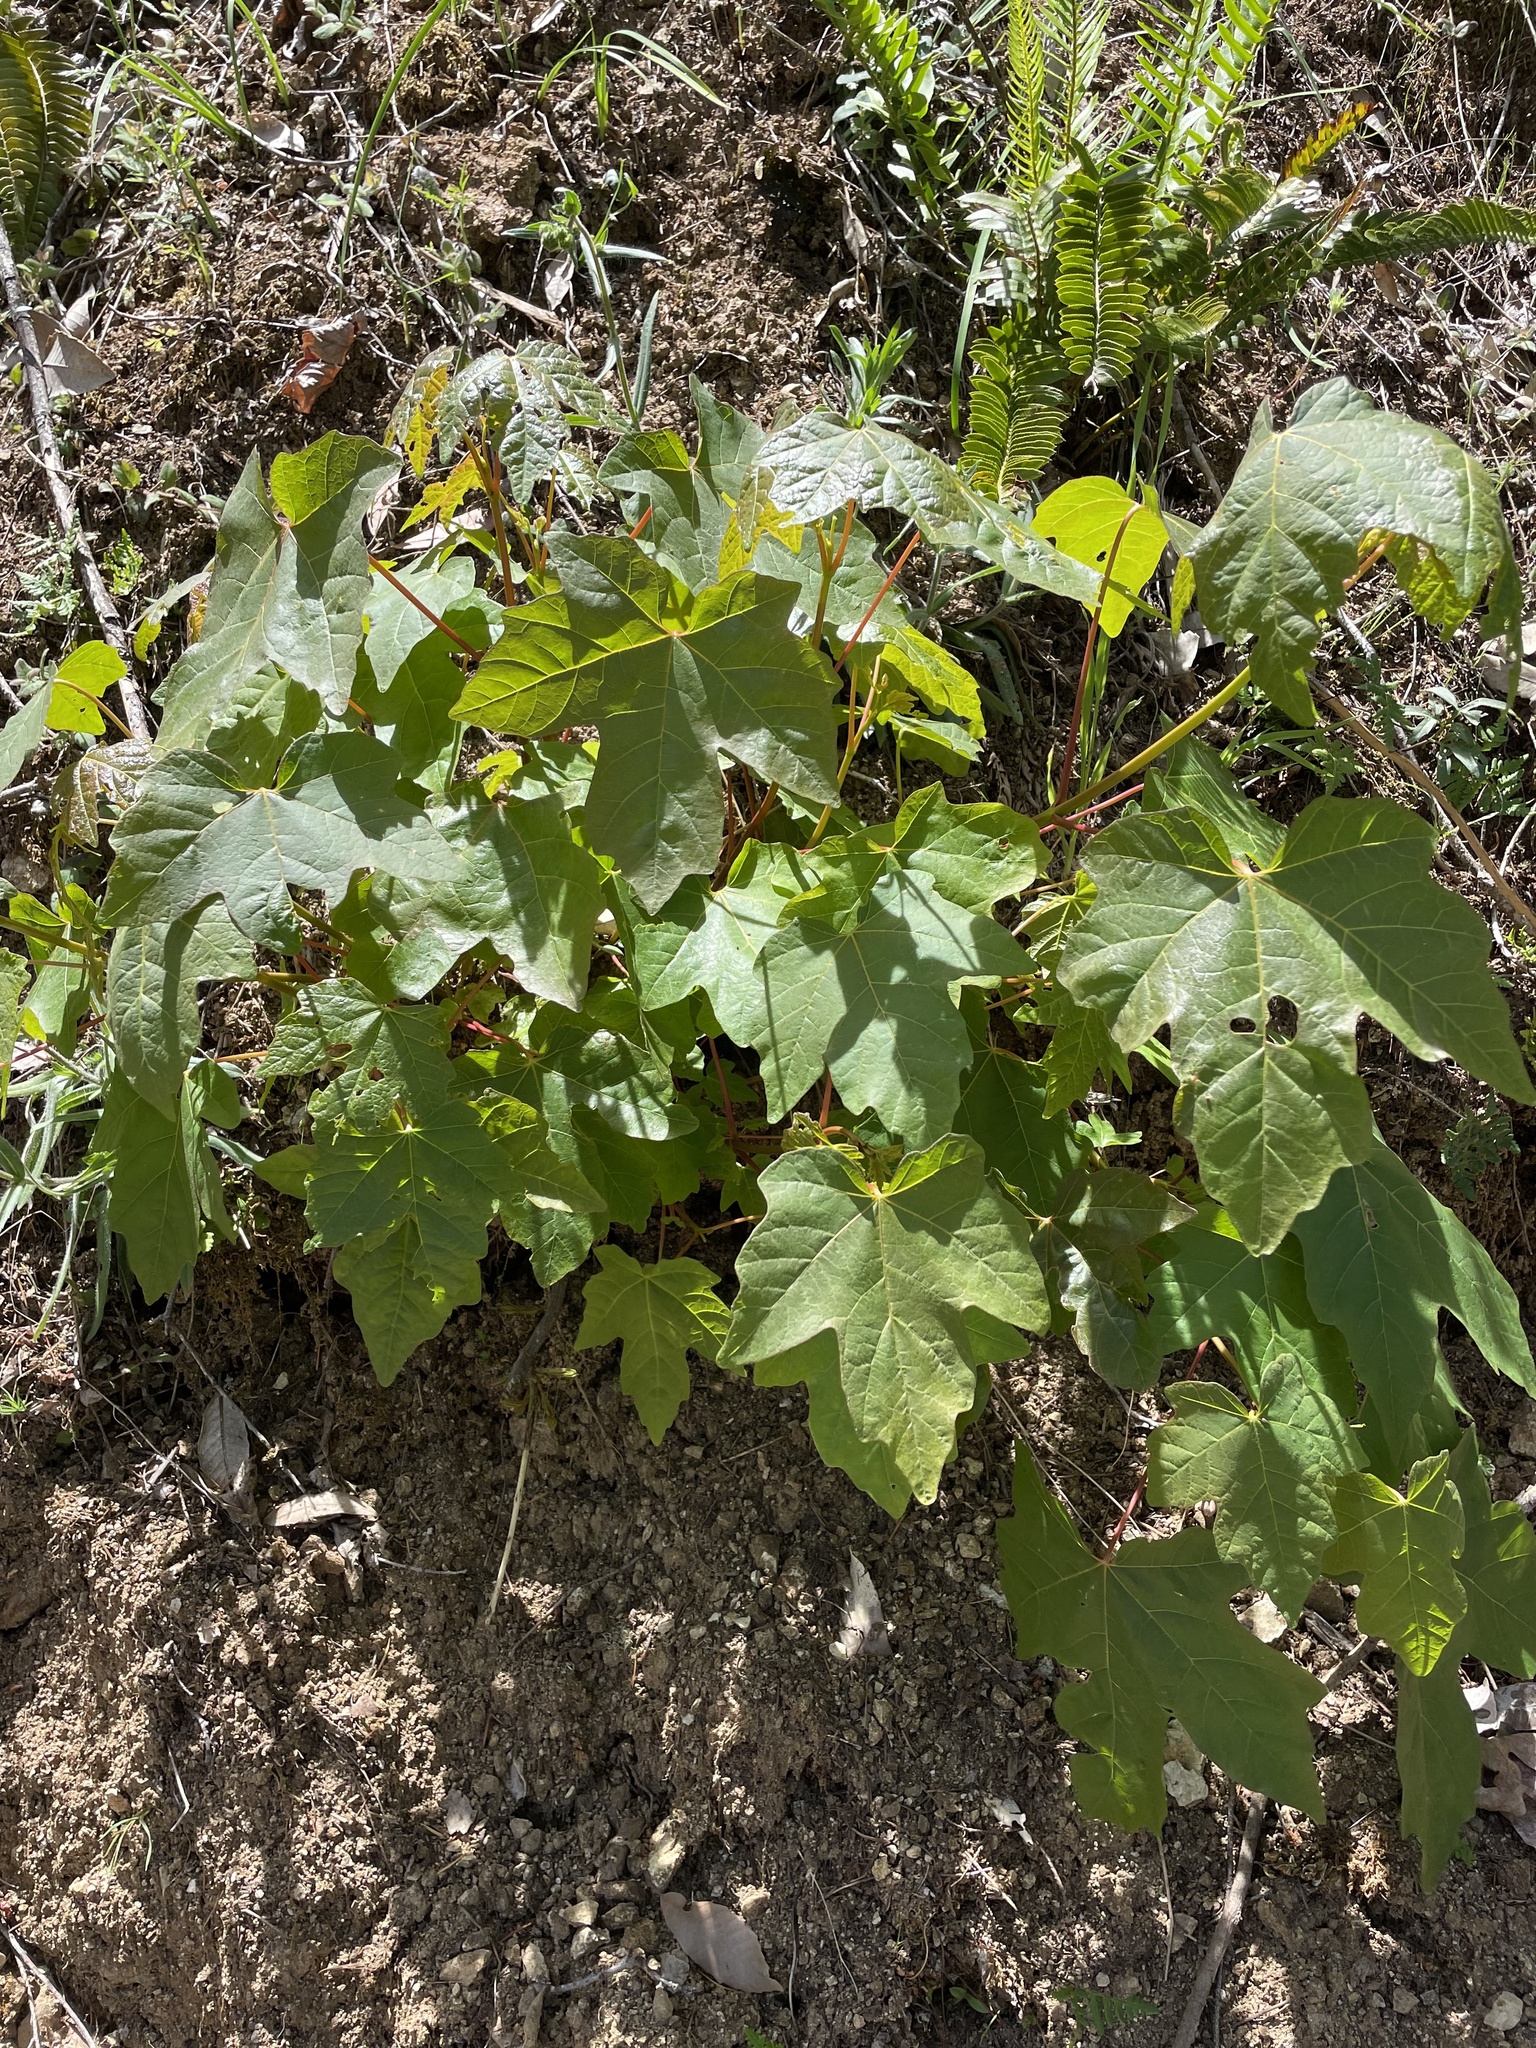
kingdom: Plantae
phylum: Tracheophyta
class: Magnoliopsida
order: Sapindales
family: Sapindaceae
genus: Acer
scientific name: Acer macrophyllum
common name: Oregon maple
